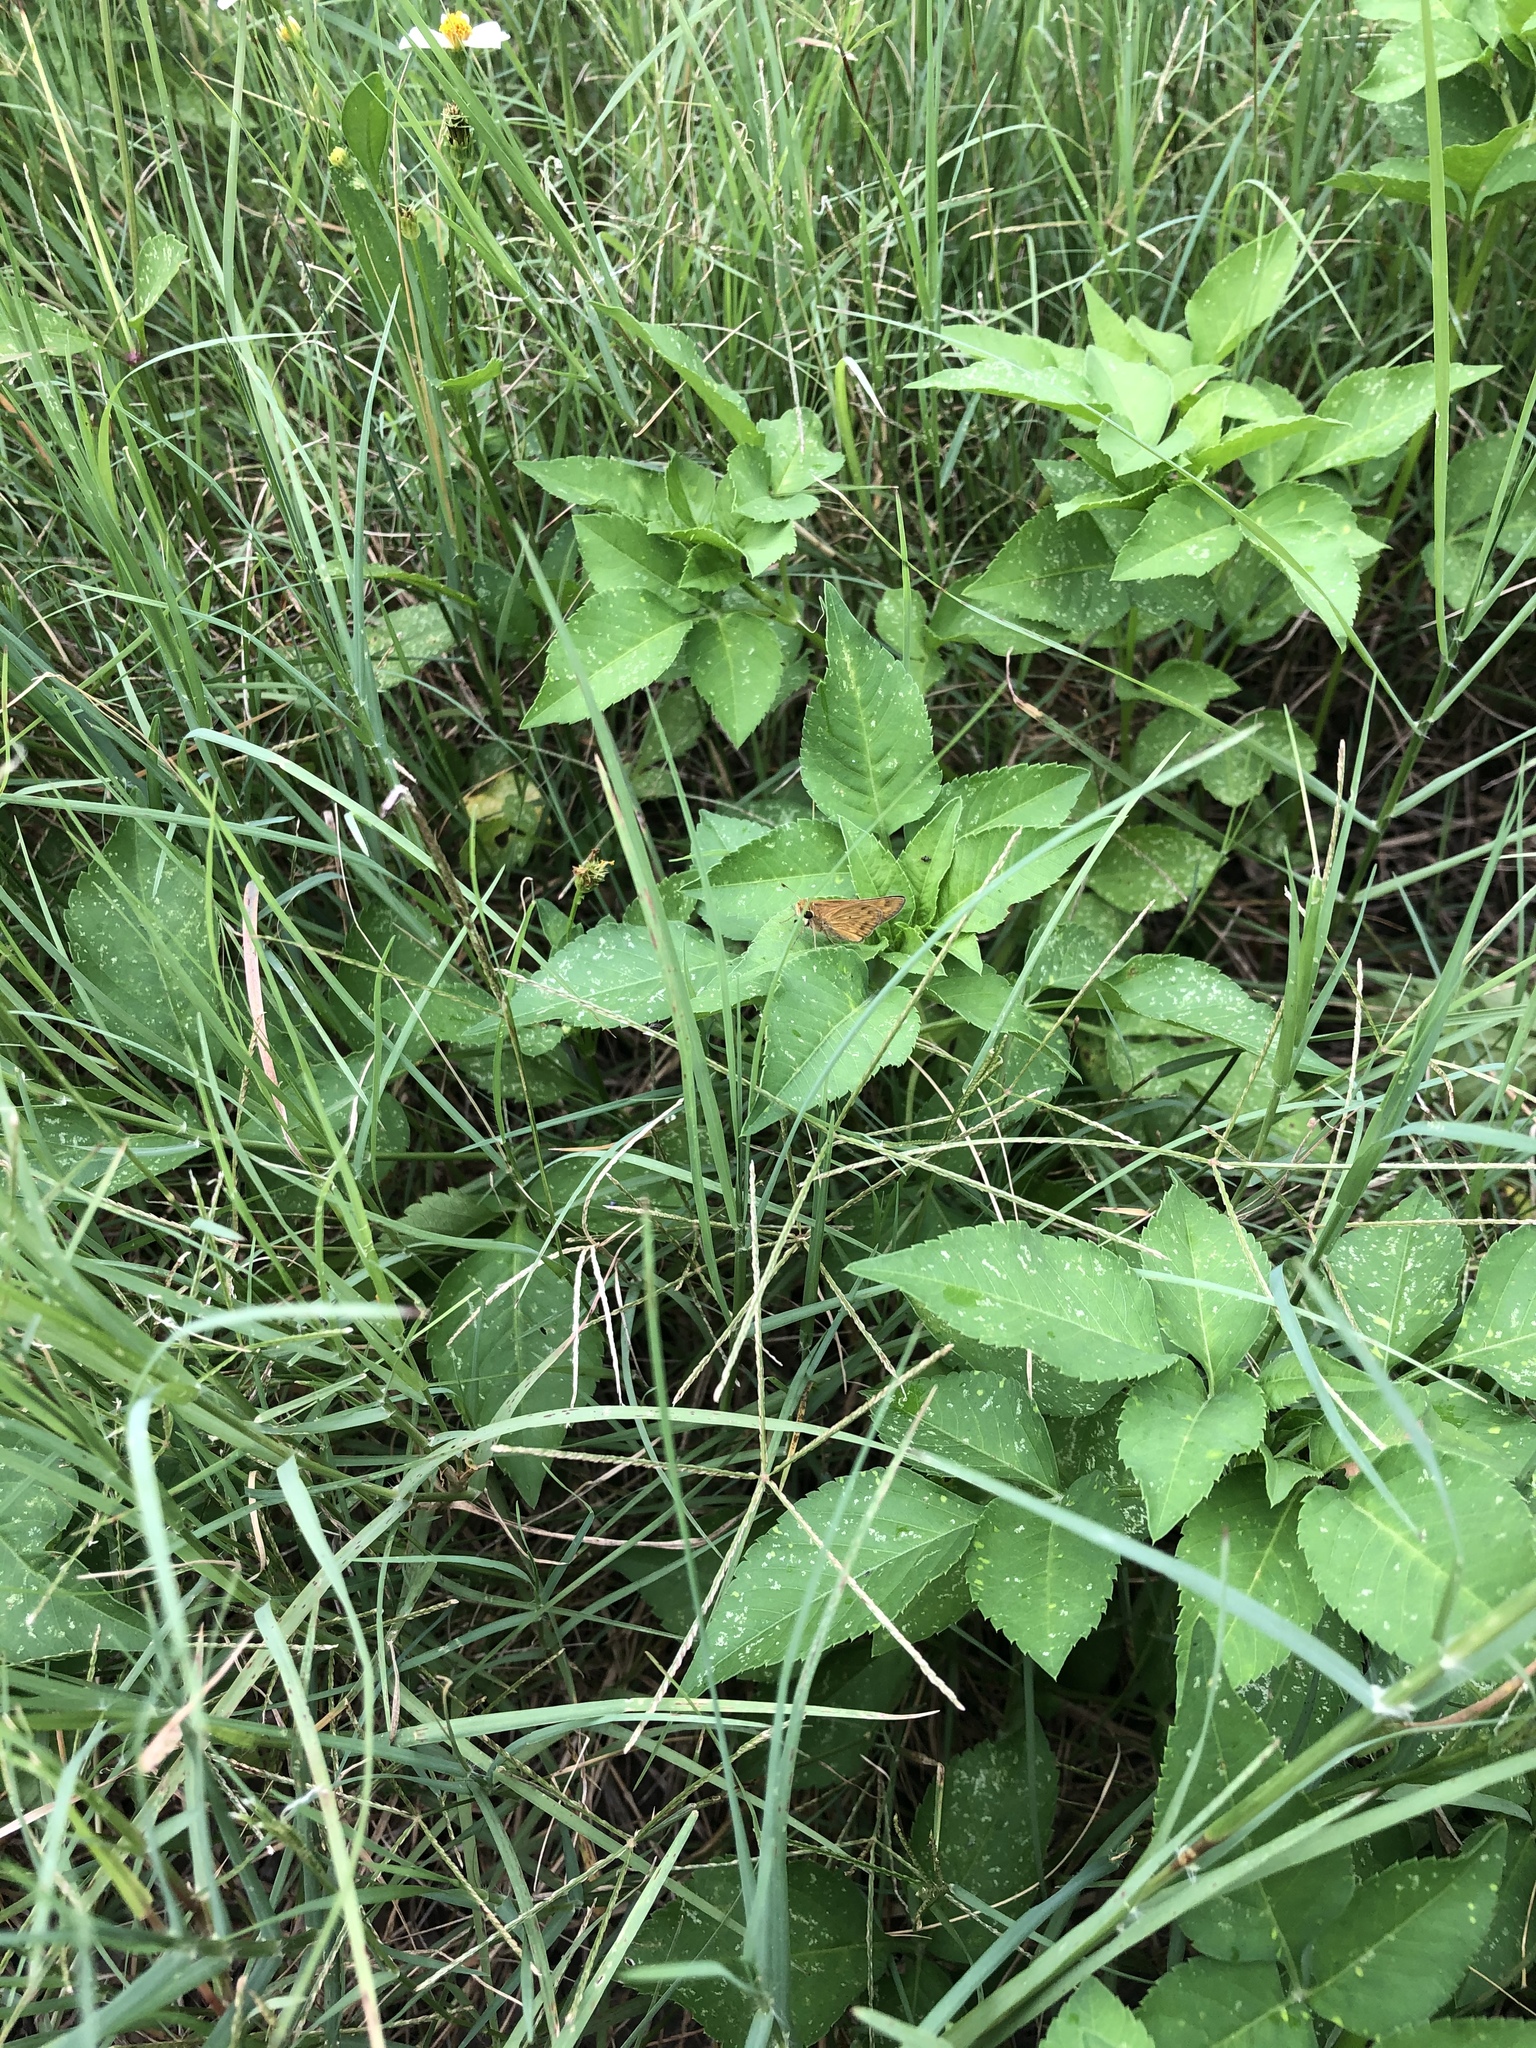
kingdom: Animalia
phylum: Arthropoda
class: Insecta
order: Lepidoptera
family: Hesperiidae
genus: Hylephila
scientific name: Hylephila phyleus
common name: Fiery skipper
